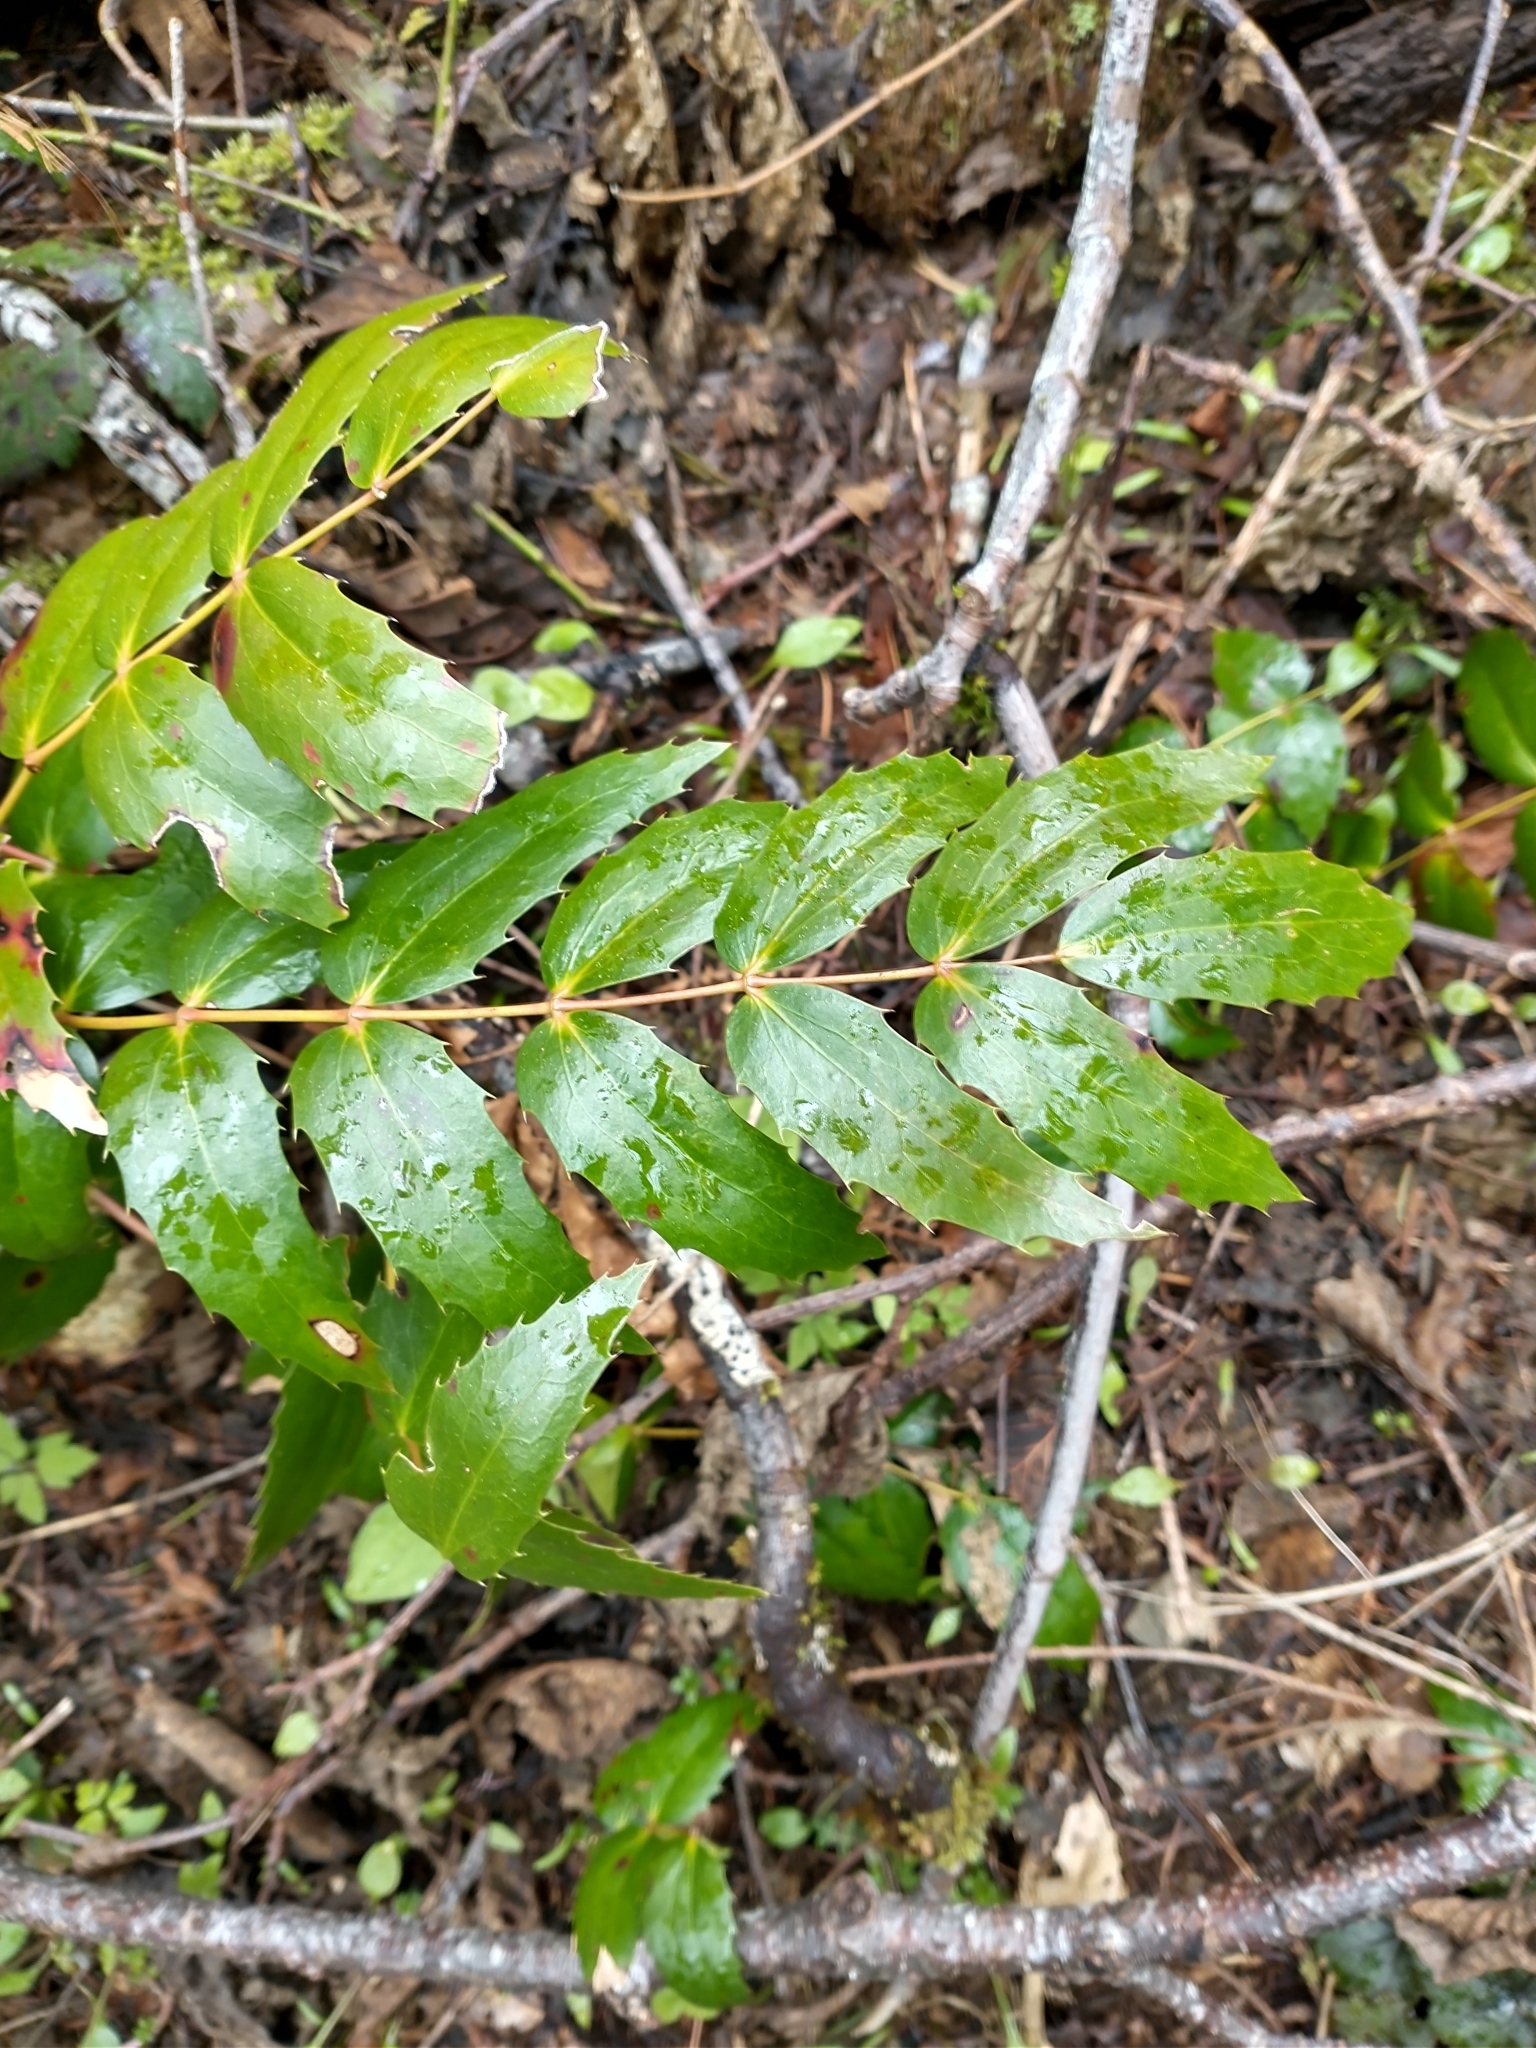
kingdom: Plantae
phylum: Tracheophyta
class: Magnoliopsida
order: Ranunculales
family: Berberidaceae
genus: Mahonia
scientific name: Mahonia nervosa
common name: Cascade oregon-grape
